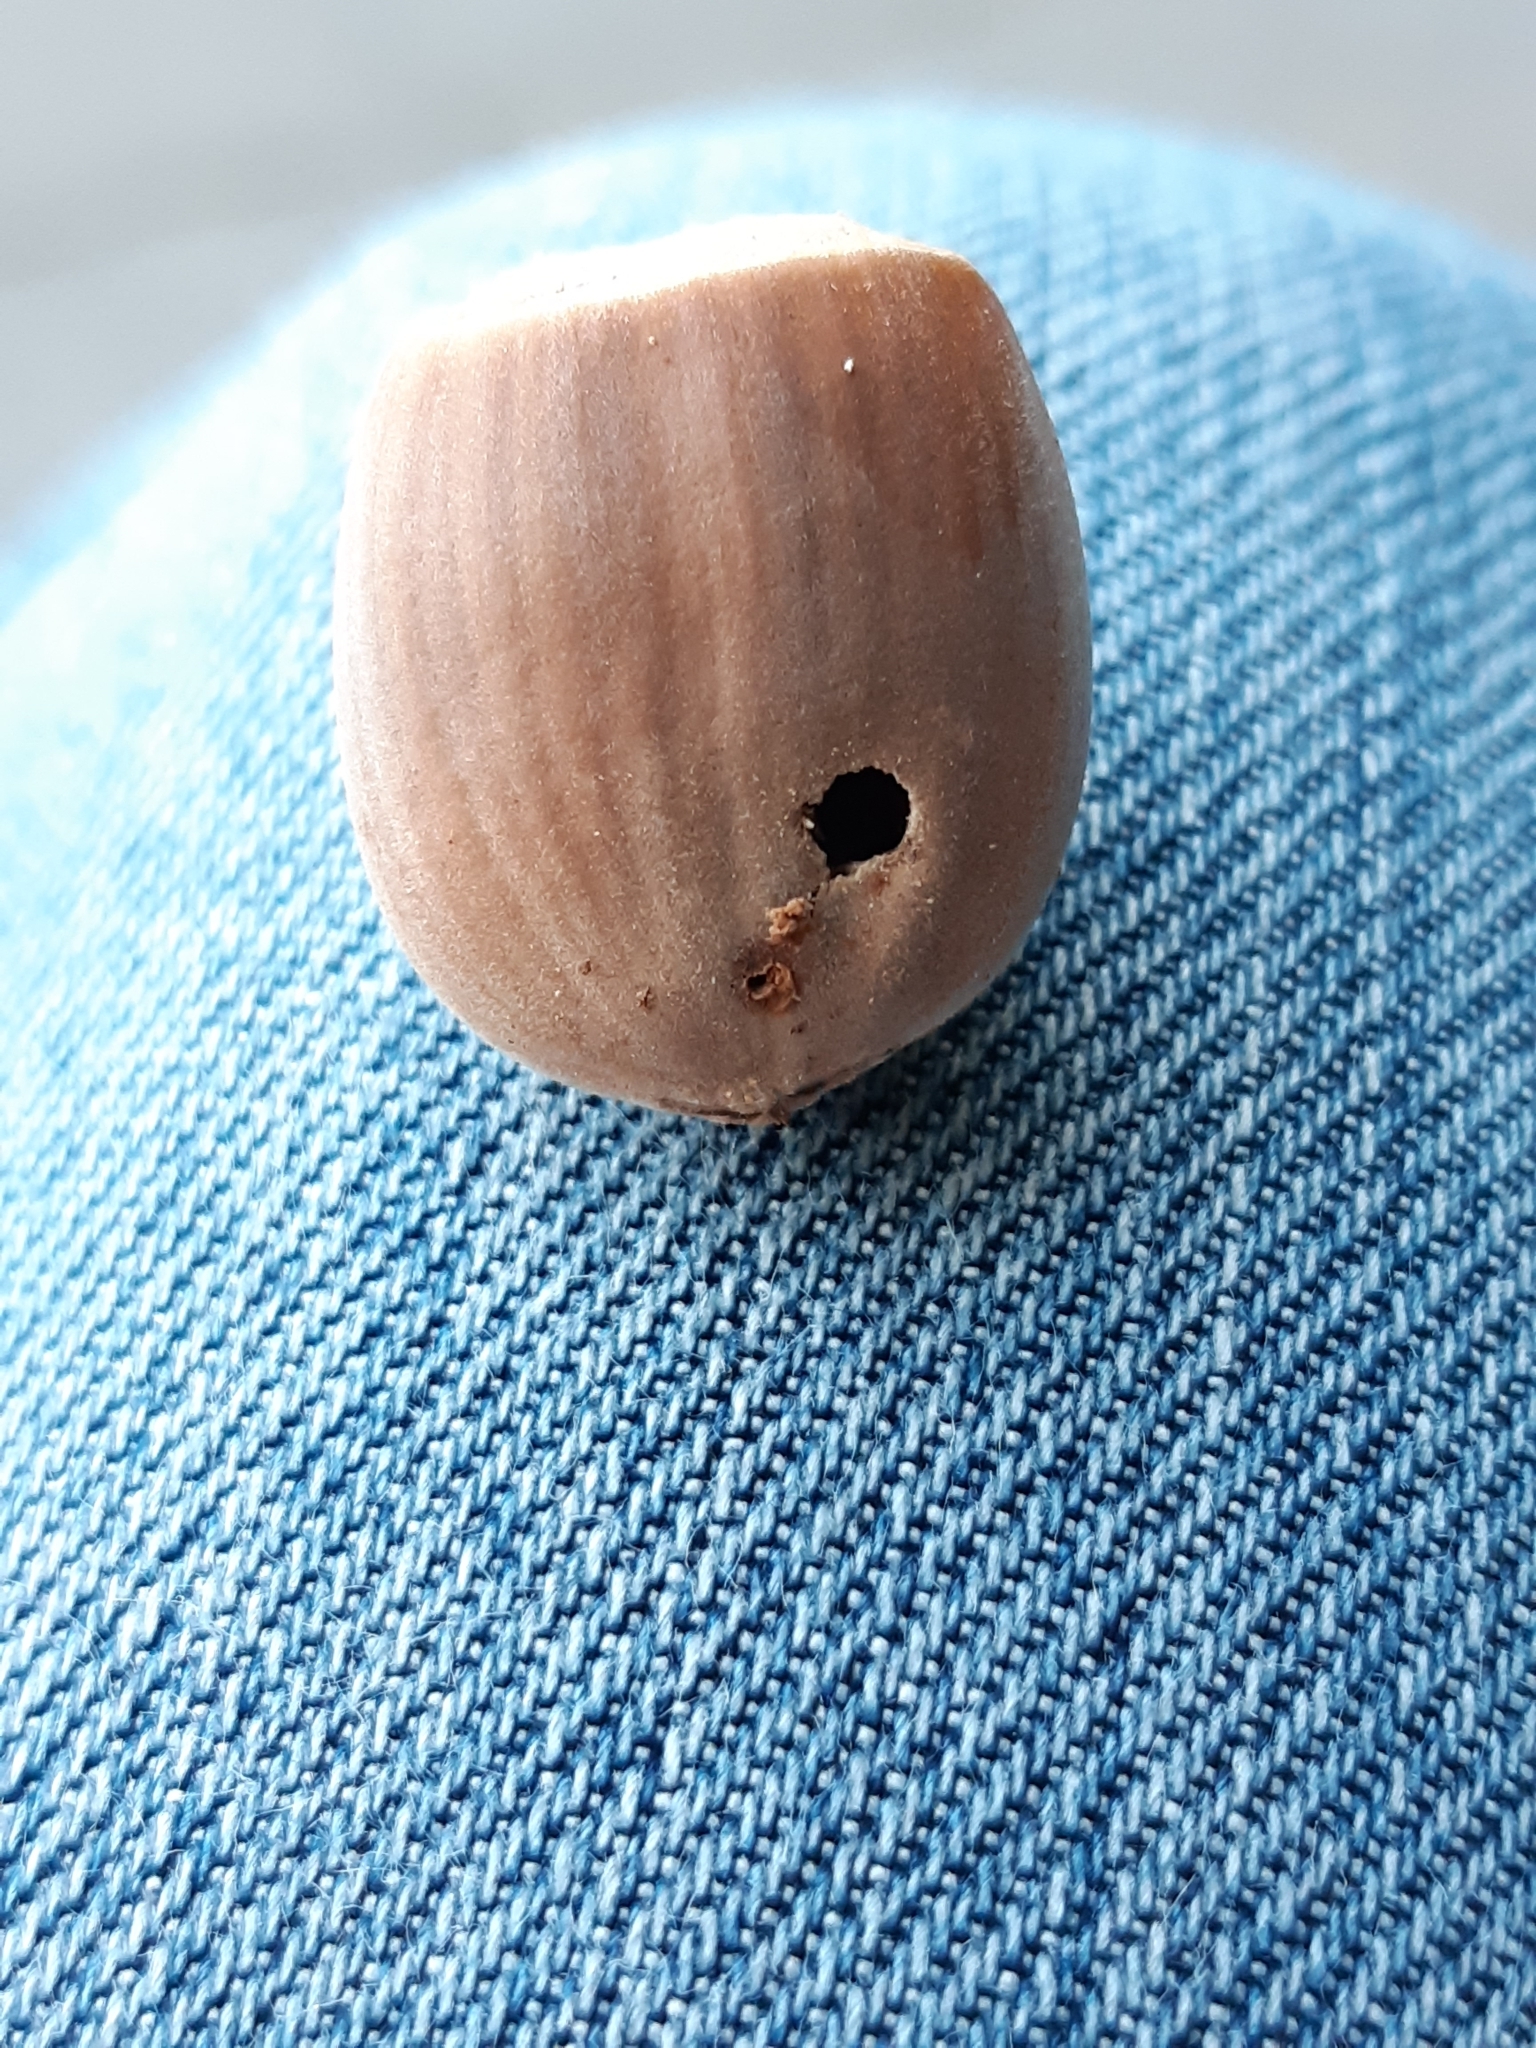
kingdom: Animalia
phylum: Arthropoda
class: Insecta
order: Coleoptera
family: Curculionidae
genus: Curculio
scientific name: Curculio nucum
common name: Nut weevil
